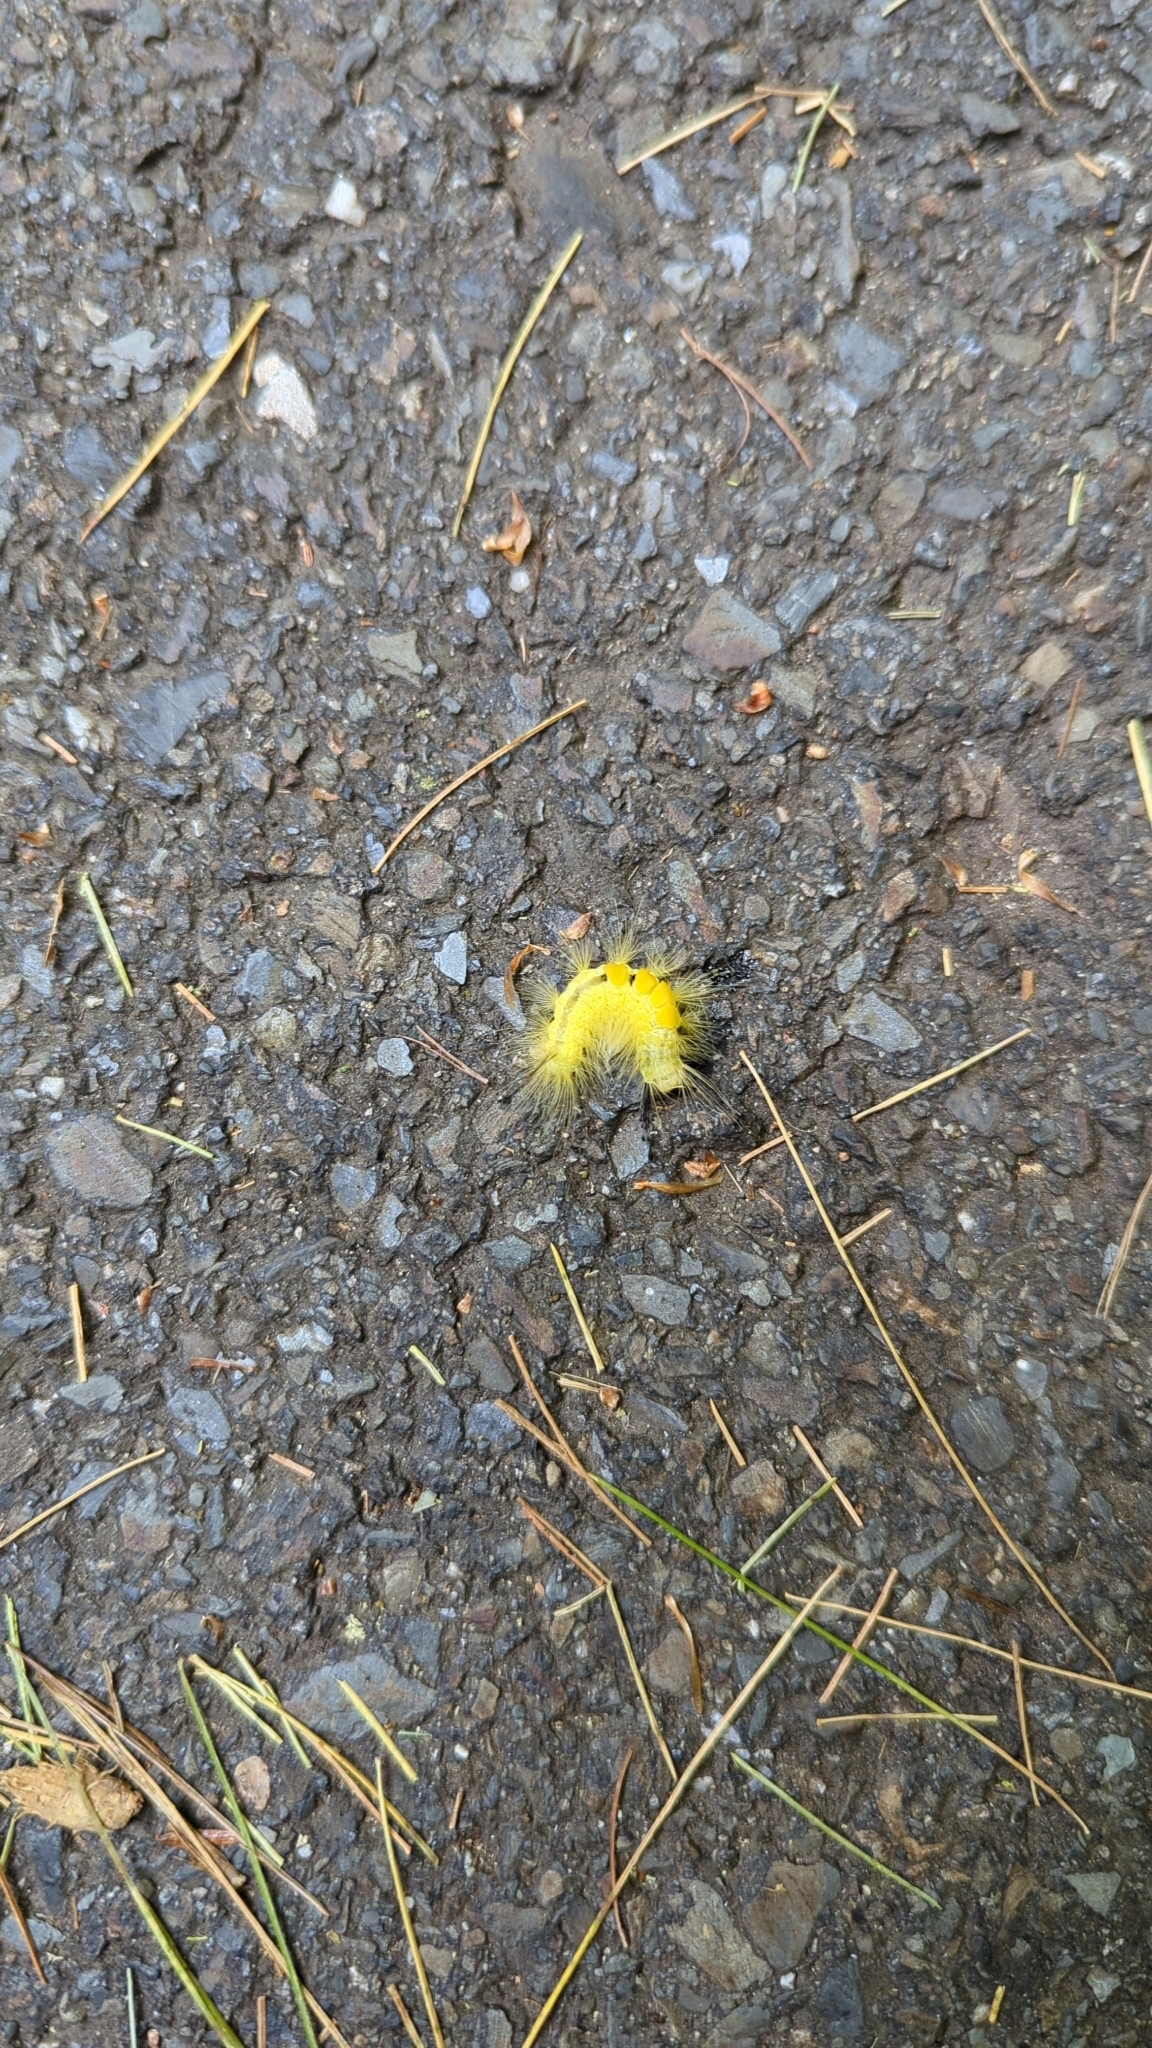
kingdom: Animalia
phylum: Arthropoda
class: Insecta
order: Lepidoptera
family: Erebidae
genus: Orgyia
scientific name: Orgyia definita
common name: Definite tussock moth
